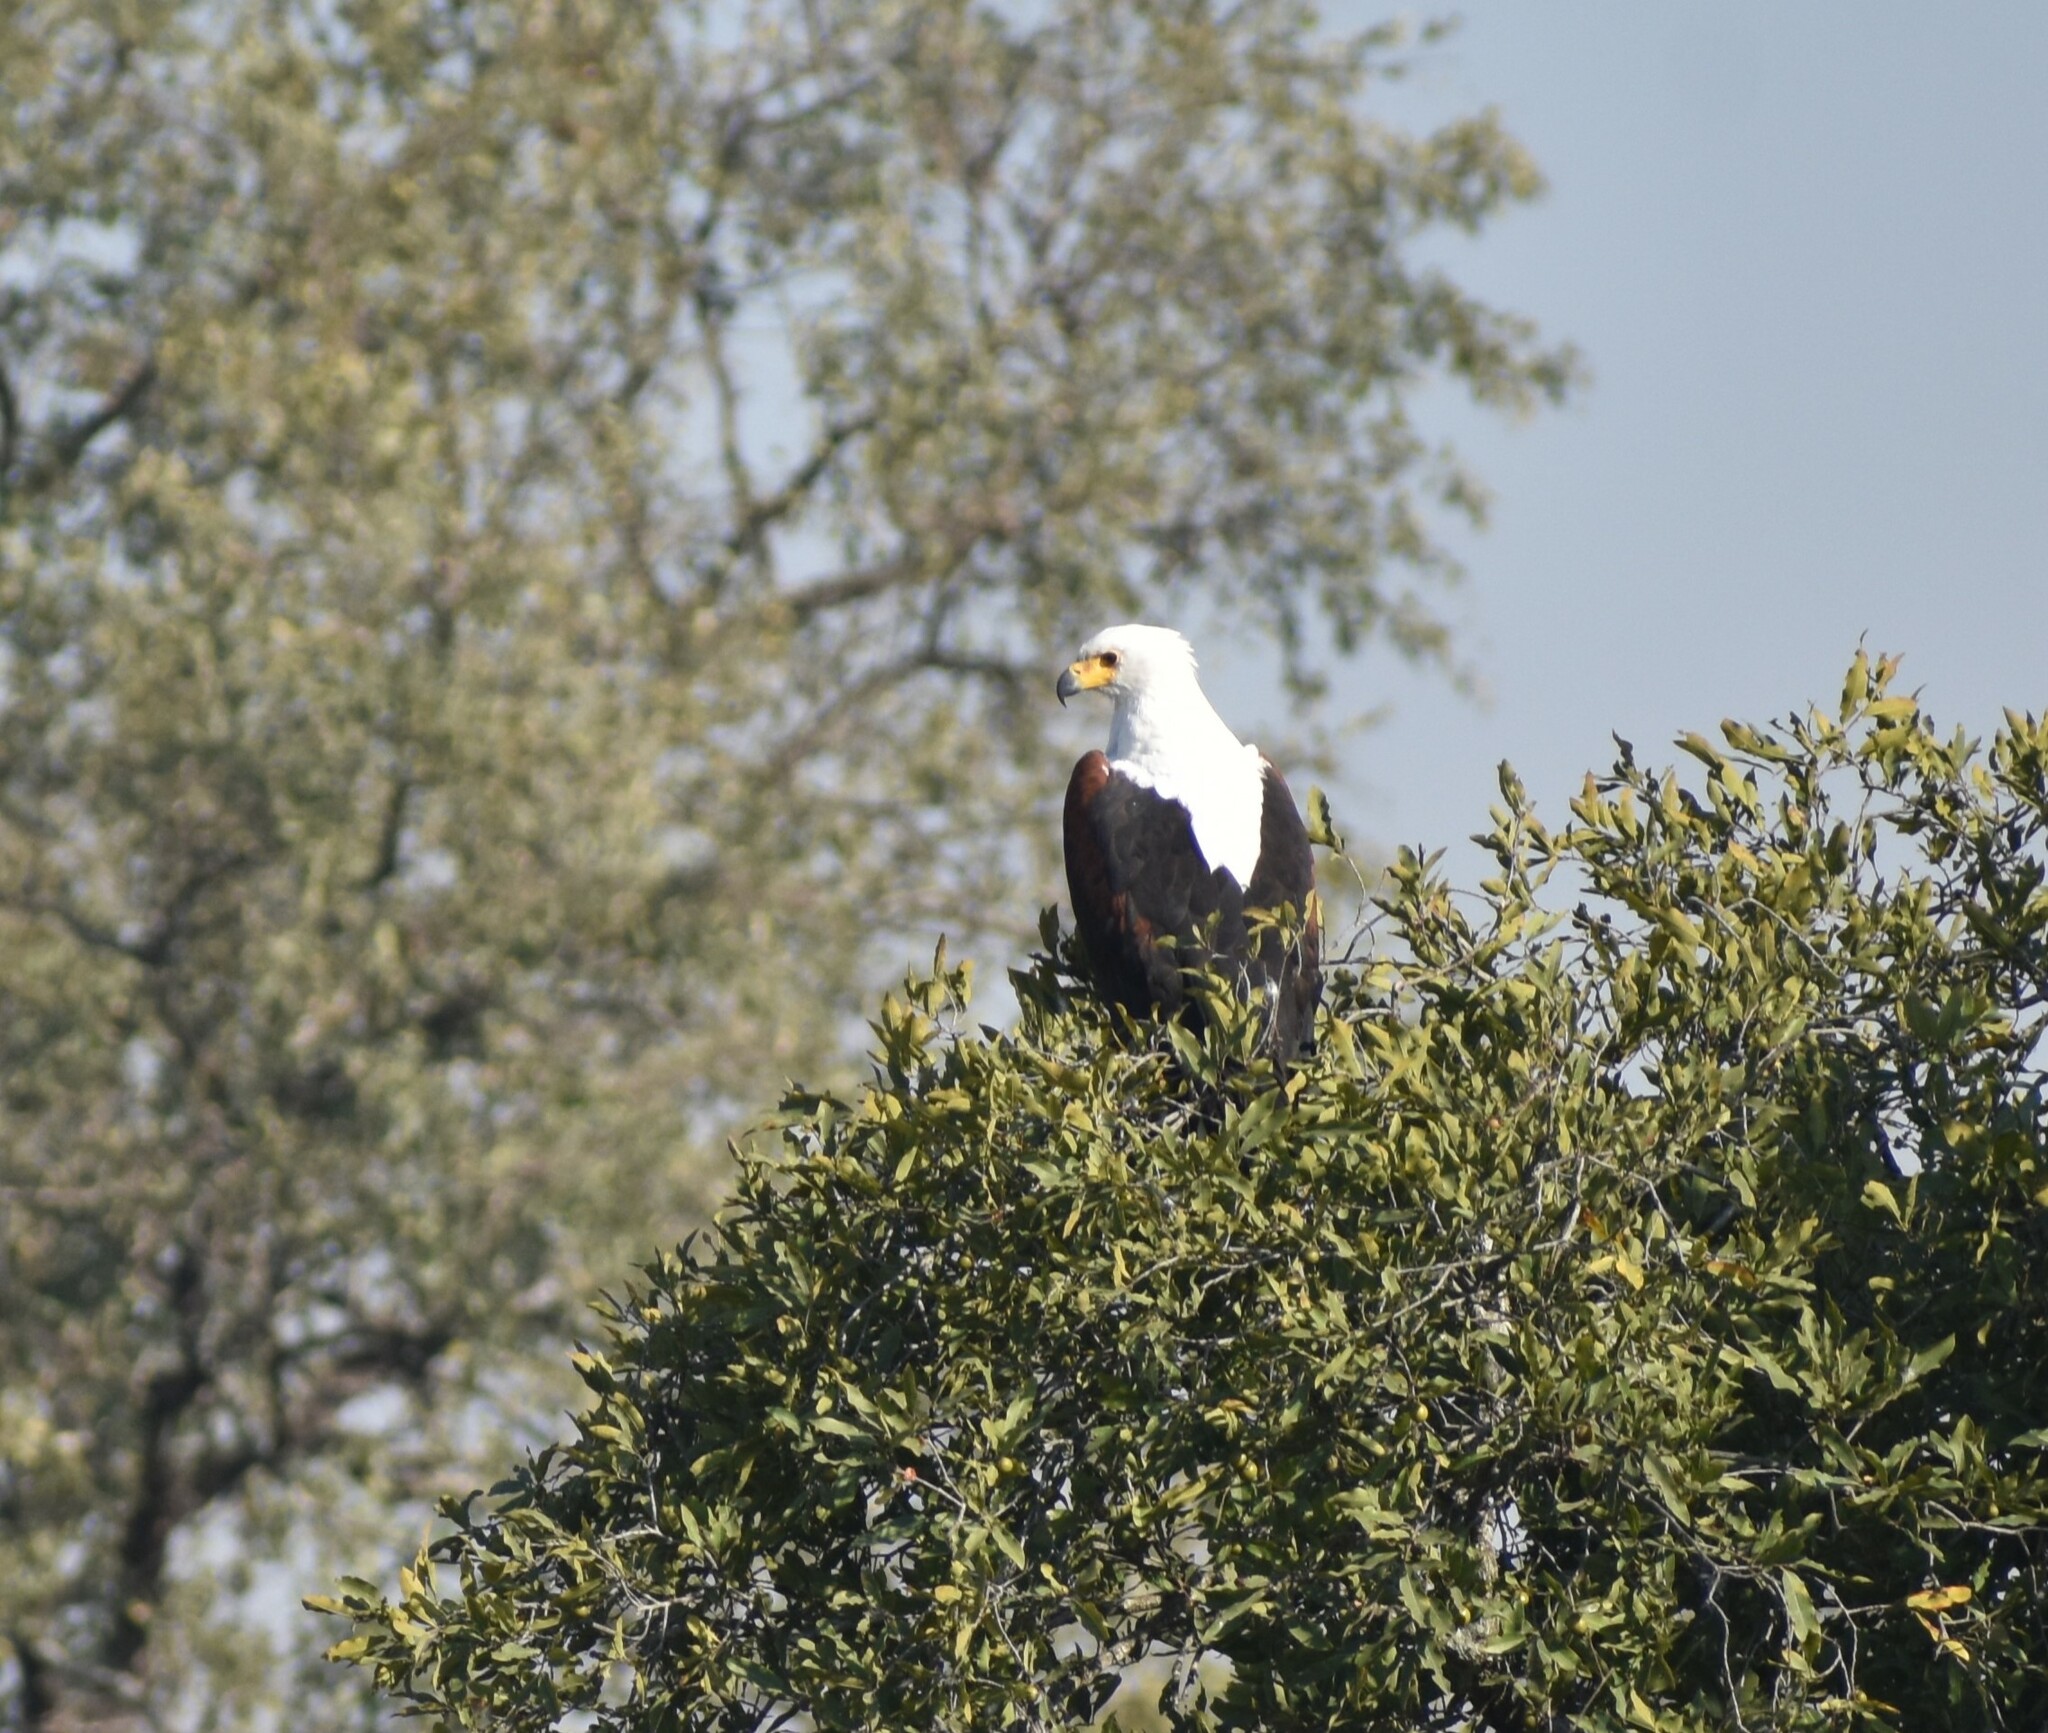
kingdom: Animalia
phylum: Chordata
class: Aves
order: Accipitriformes
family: Accipitridae
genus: Haliaeetus
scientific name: Haliaeetus vocifer
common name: African fish eagle
